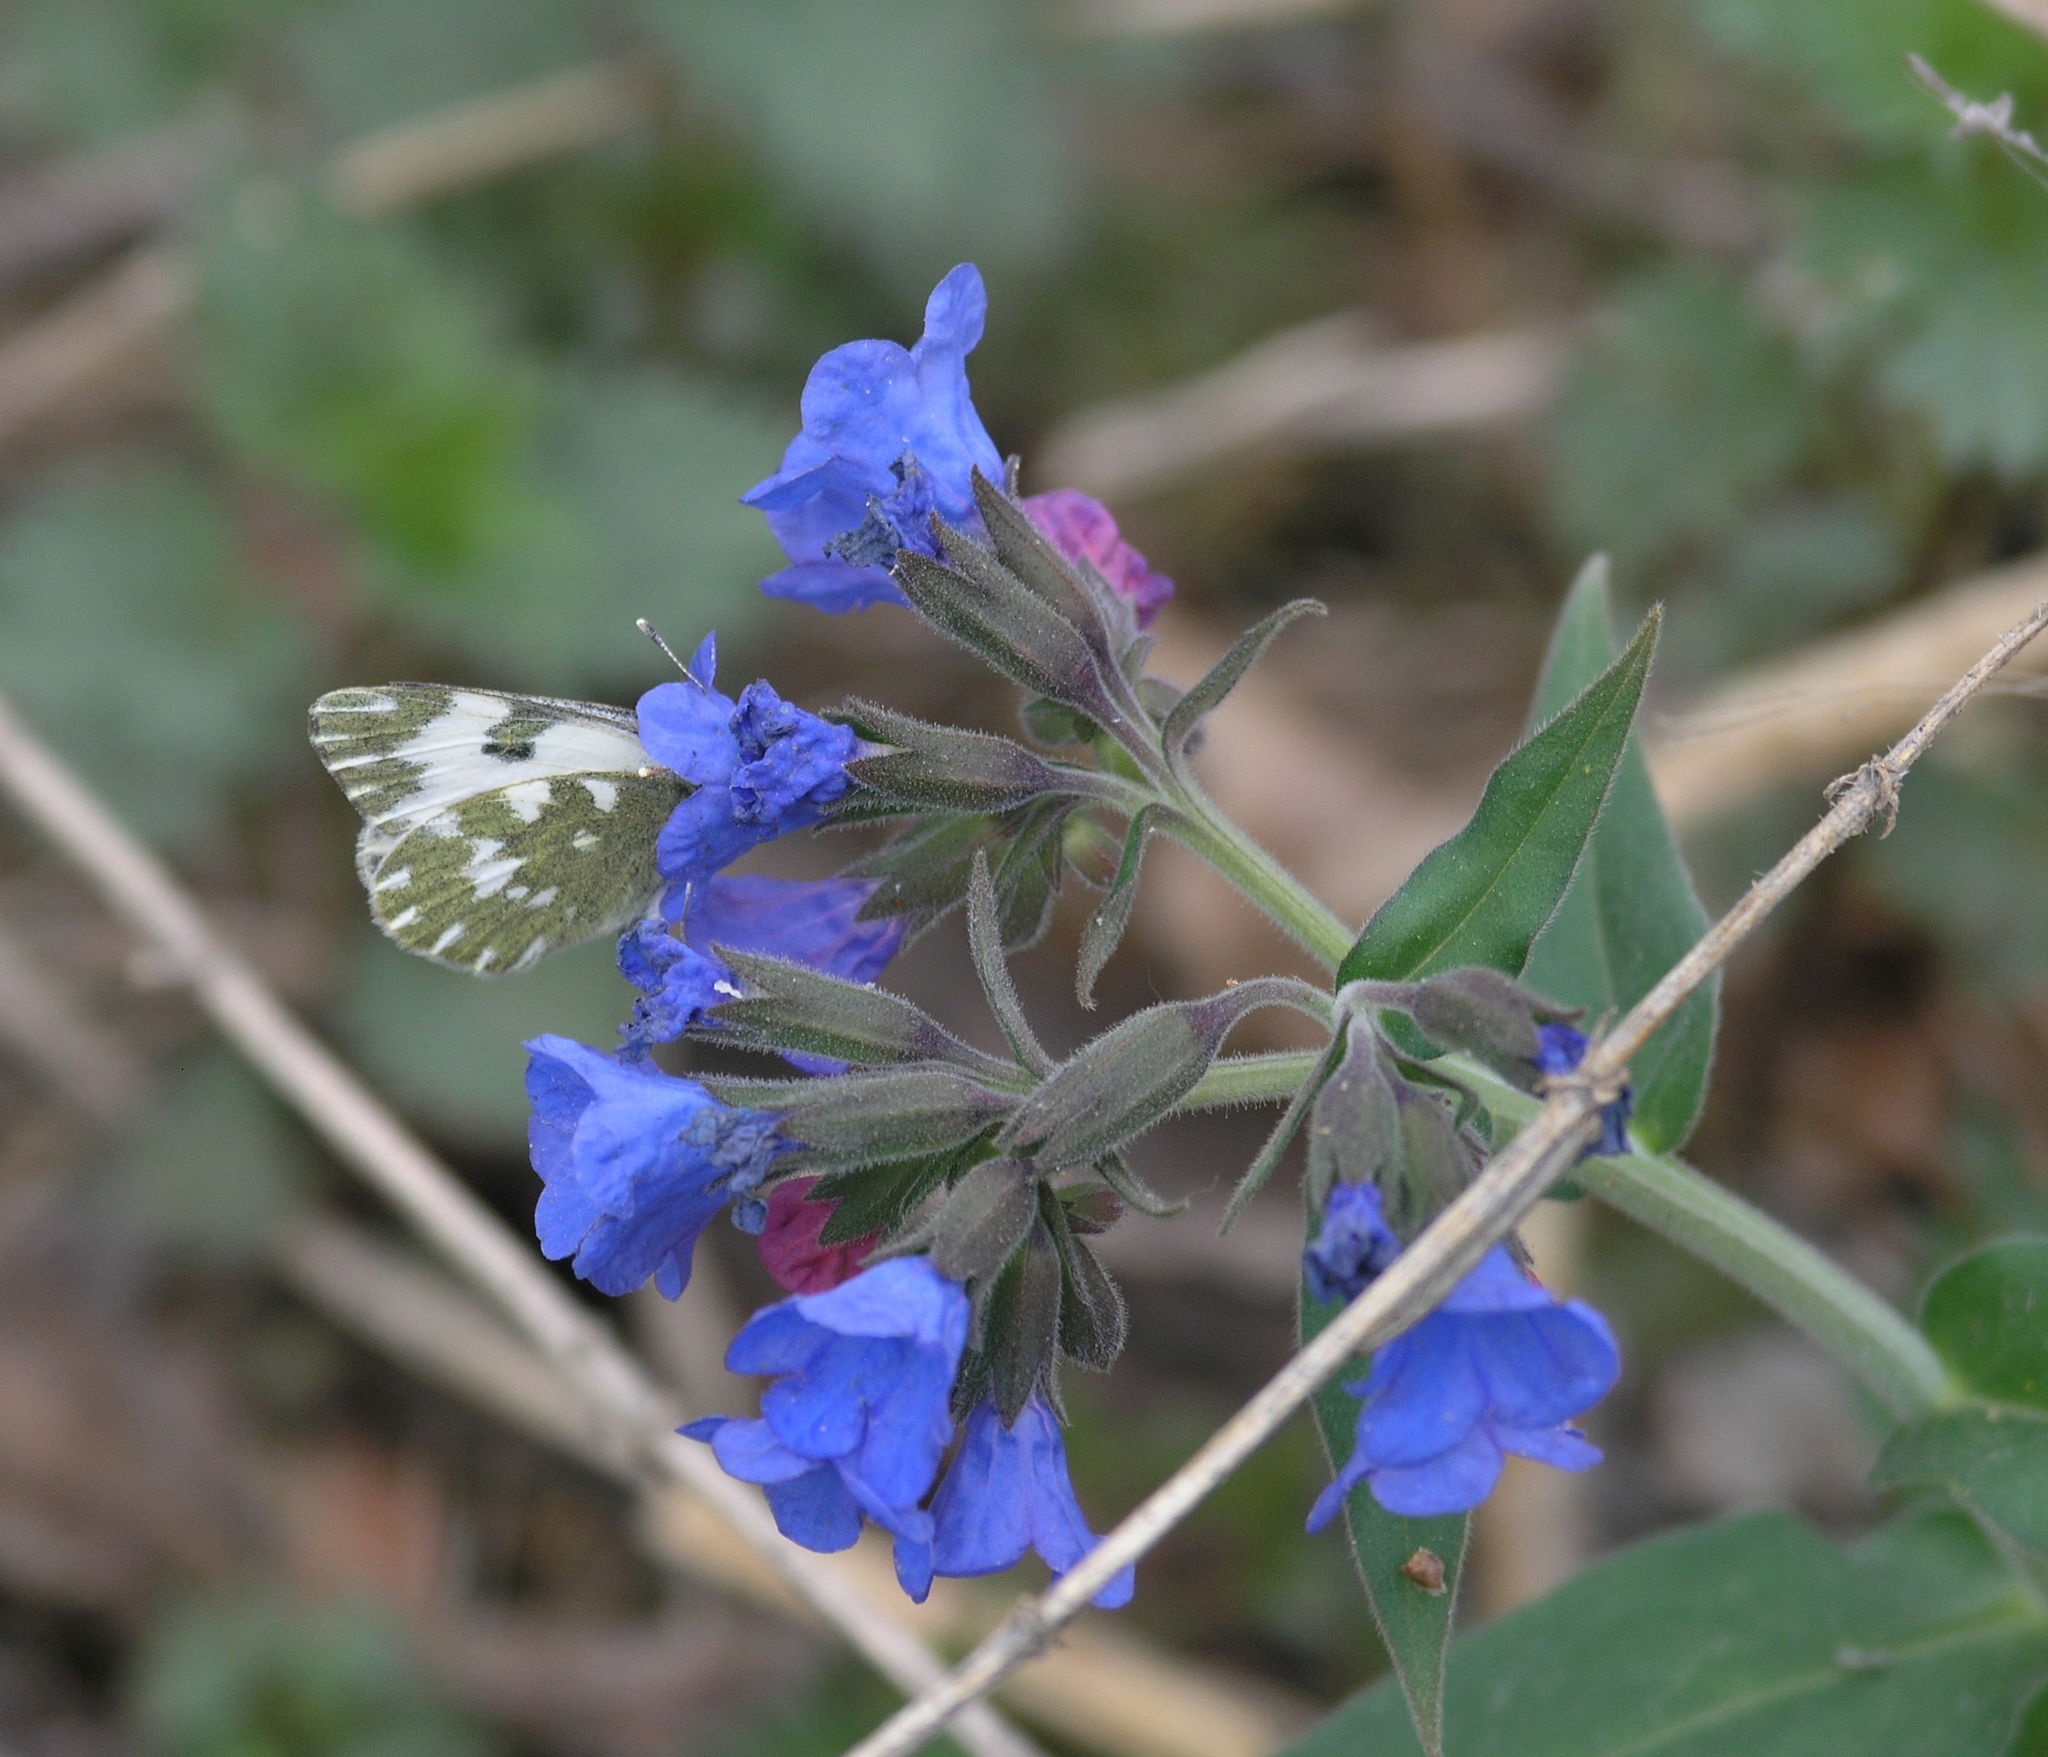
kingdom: Plantae
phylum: Tracheophyta
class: Magnoliopsida
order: Boraginales
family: Boraginaceae
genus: Pulmonaria
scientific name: Pulmonaria mollis
